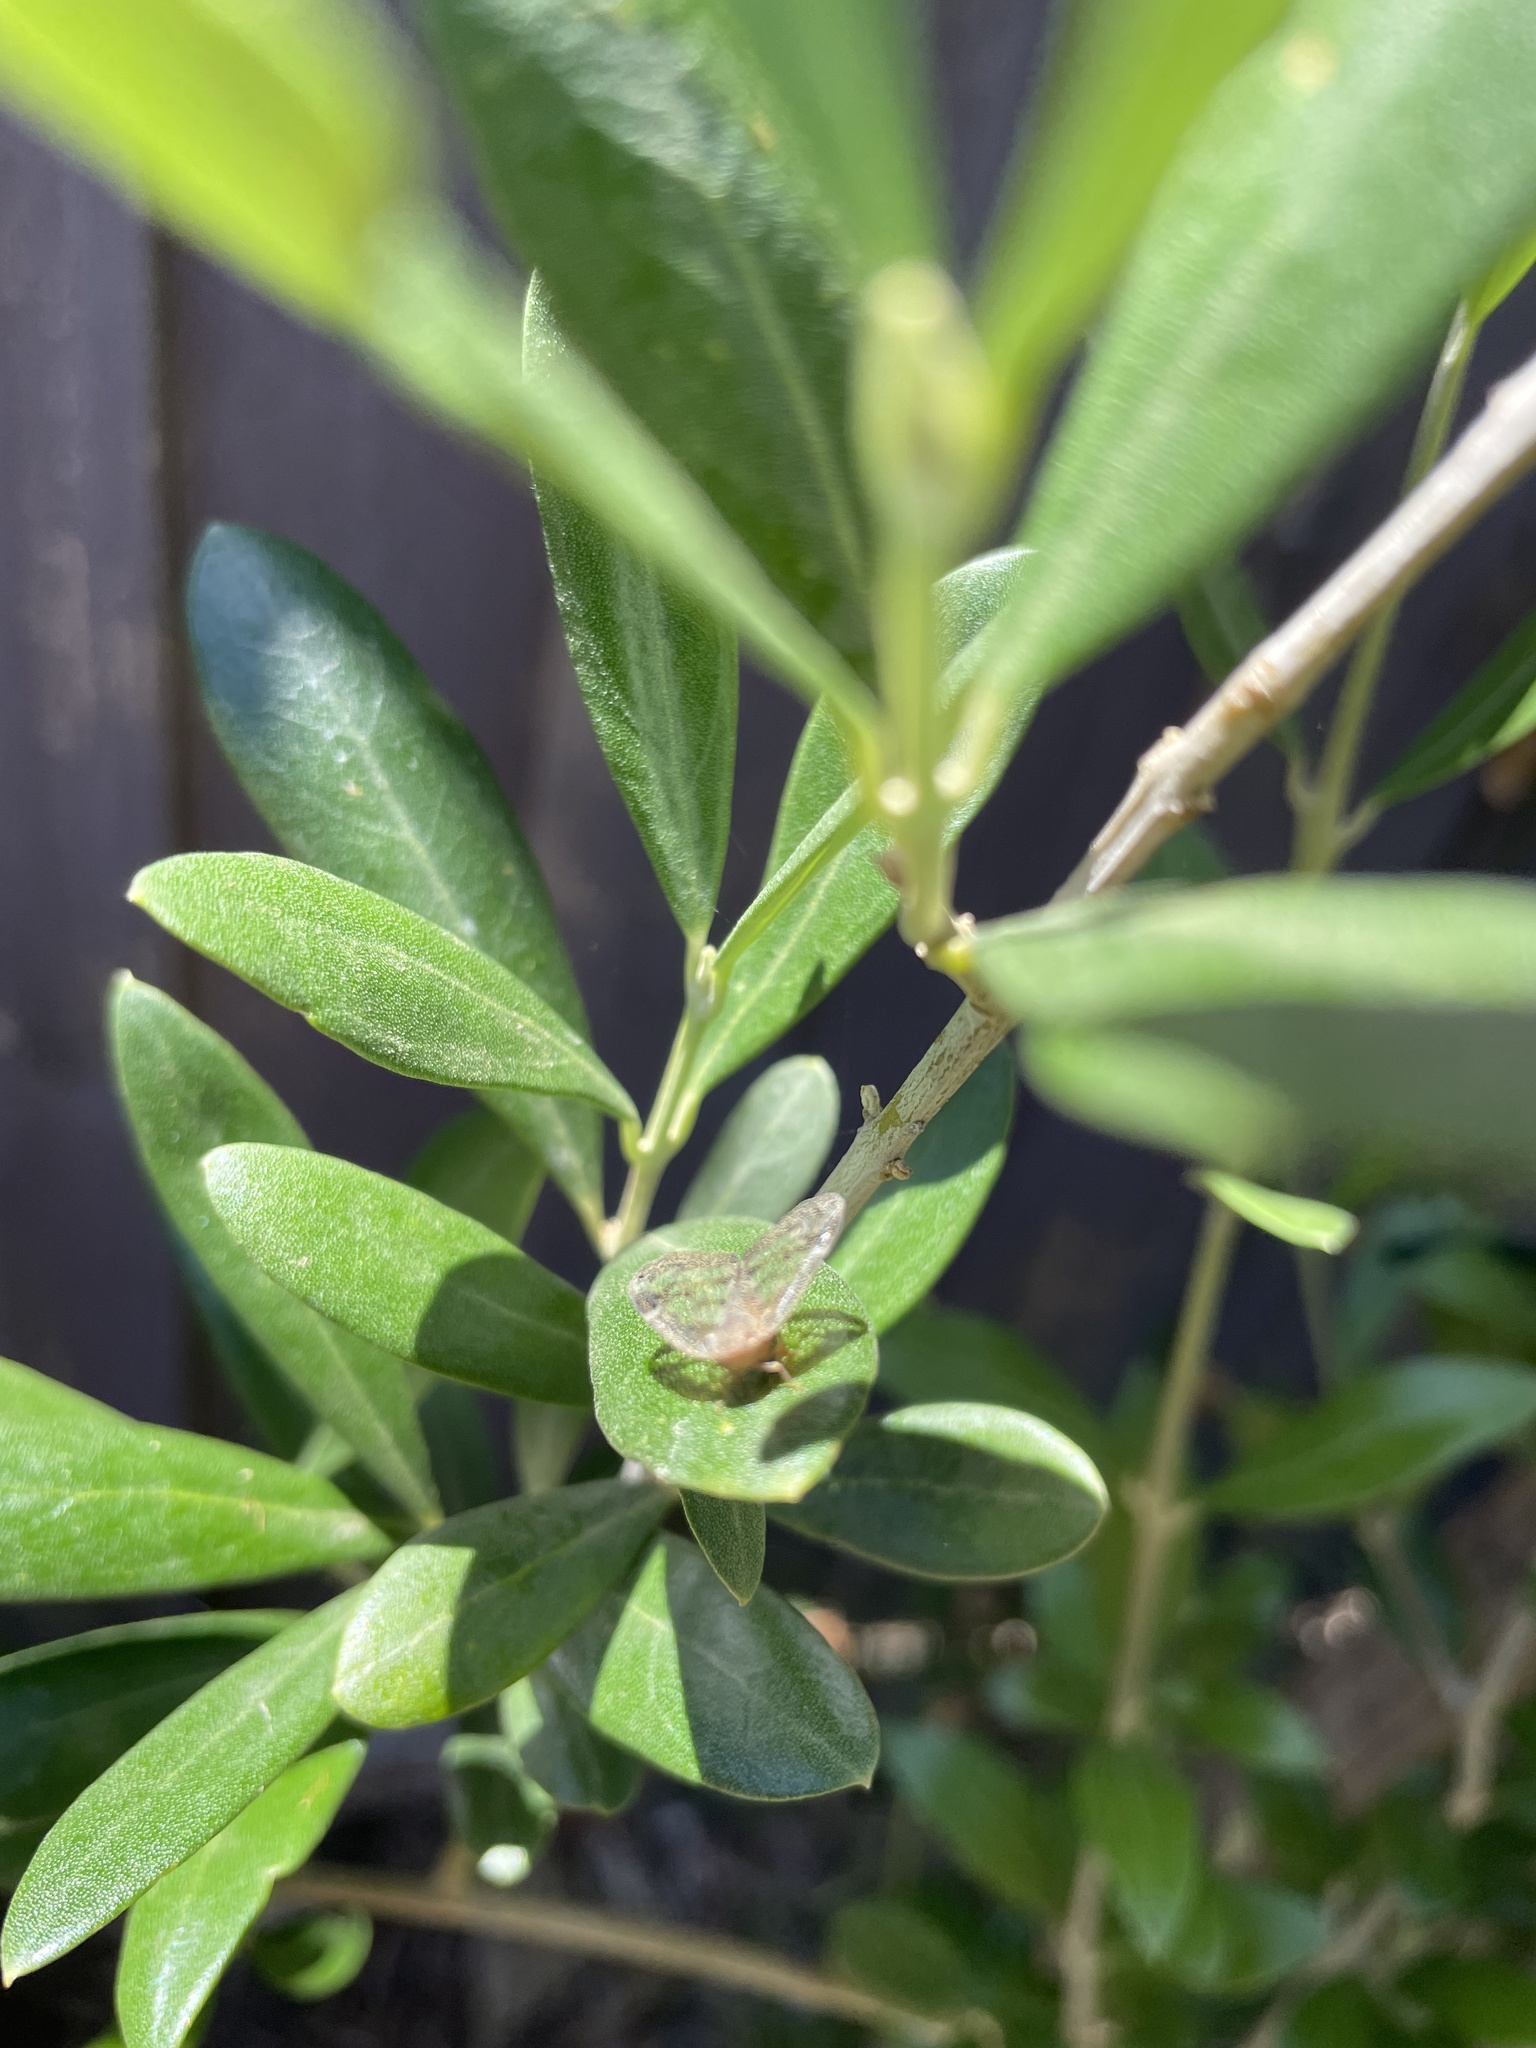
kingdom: Animalia
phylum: Arthropoda
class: Insecta
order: Hemiptera
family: Ricaniidae
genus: Scolypopa
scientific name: Scolypopa australis
